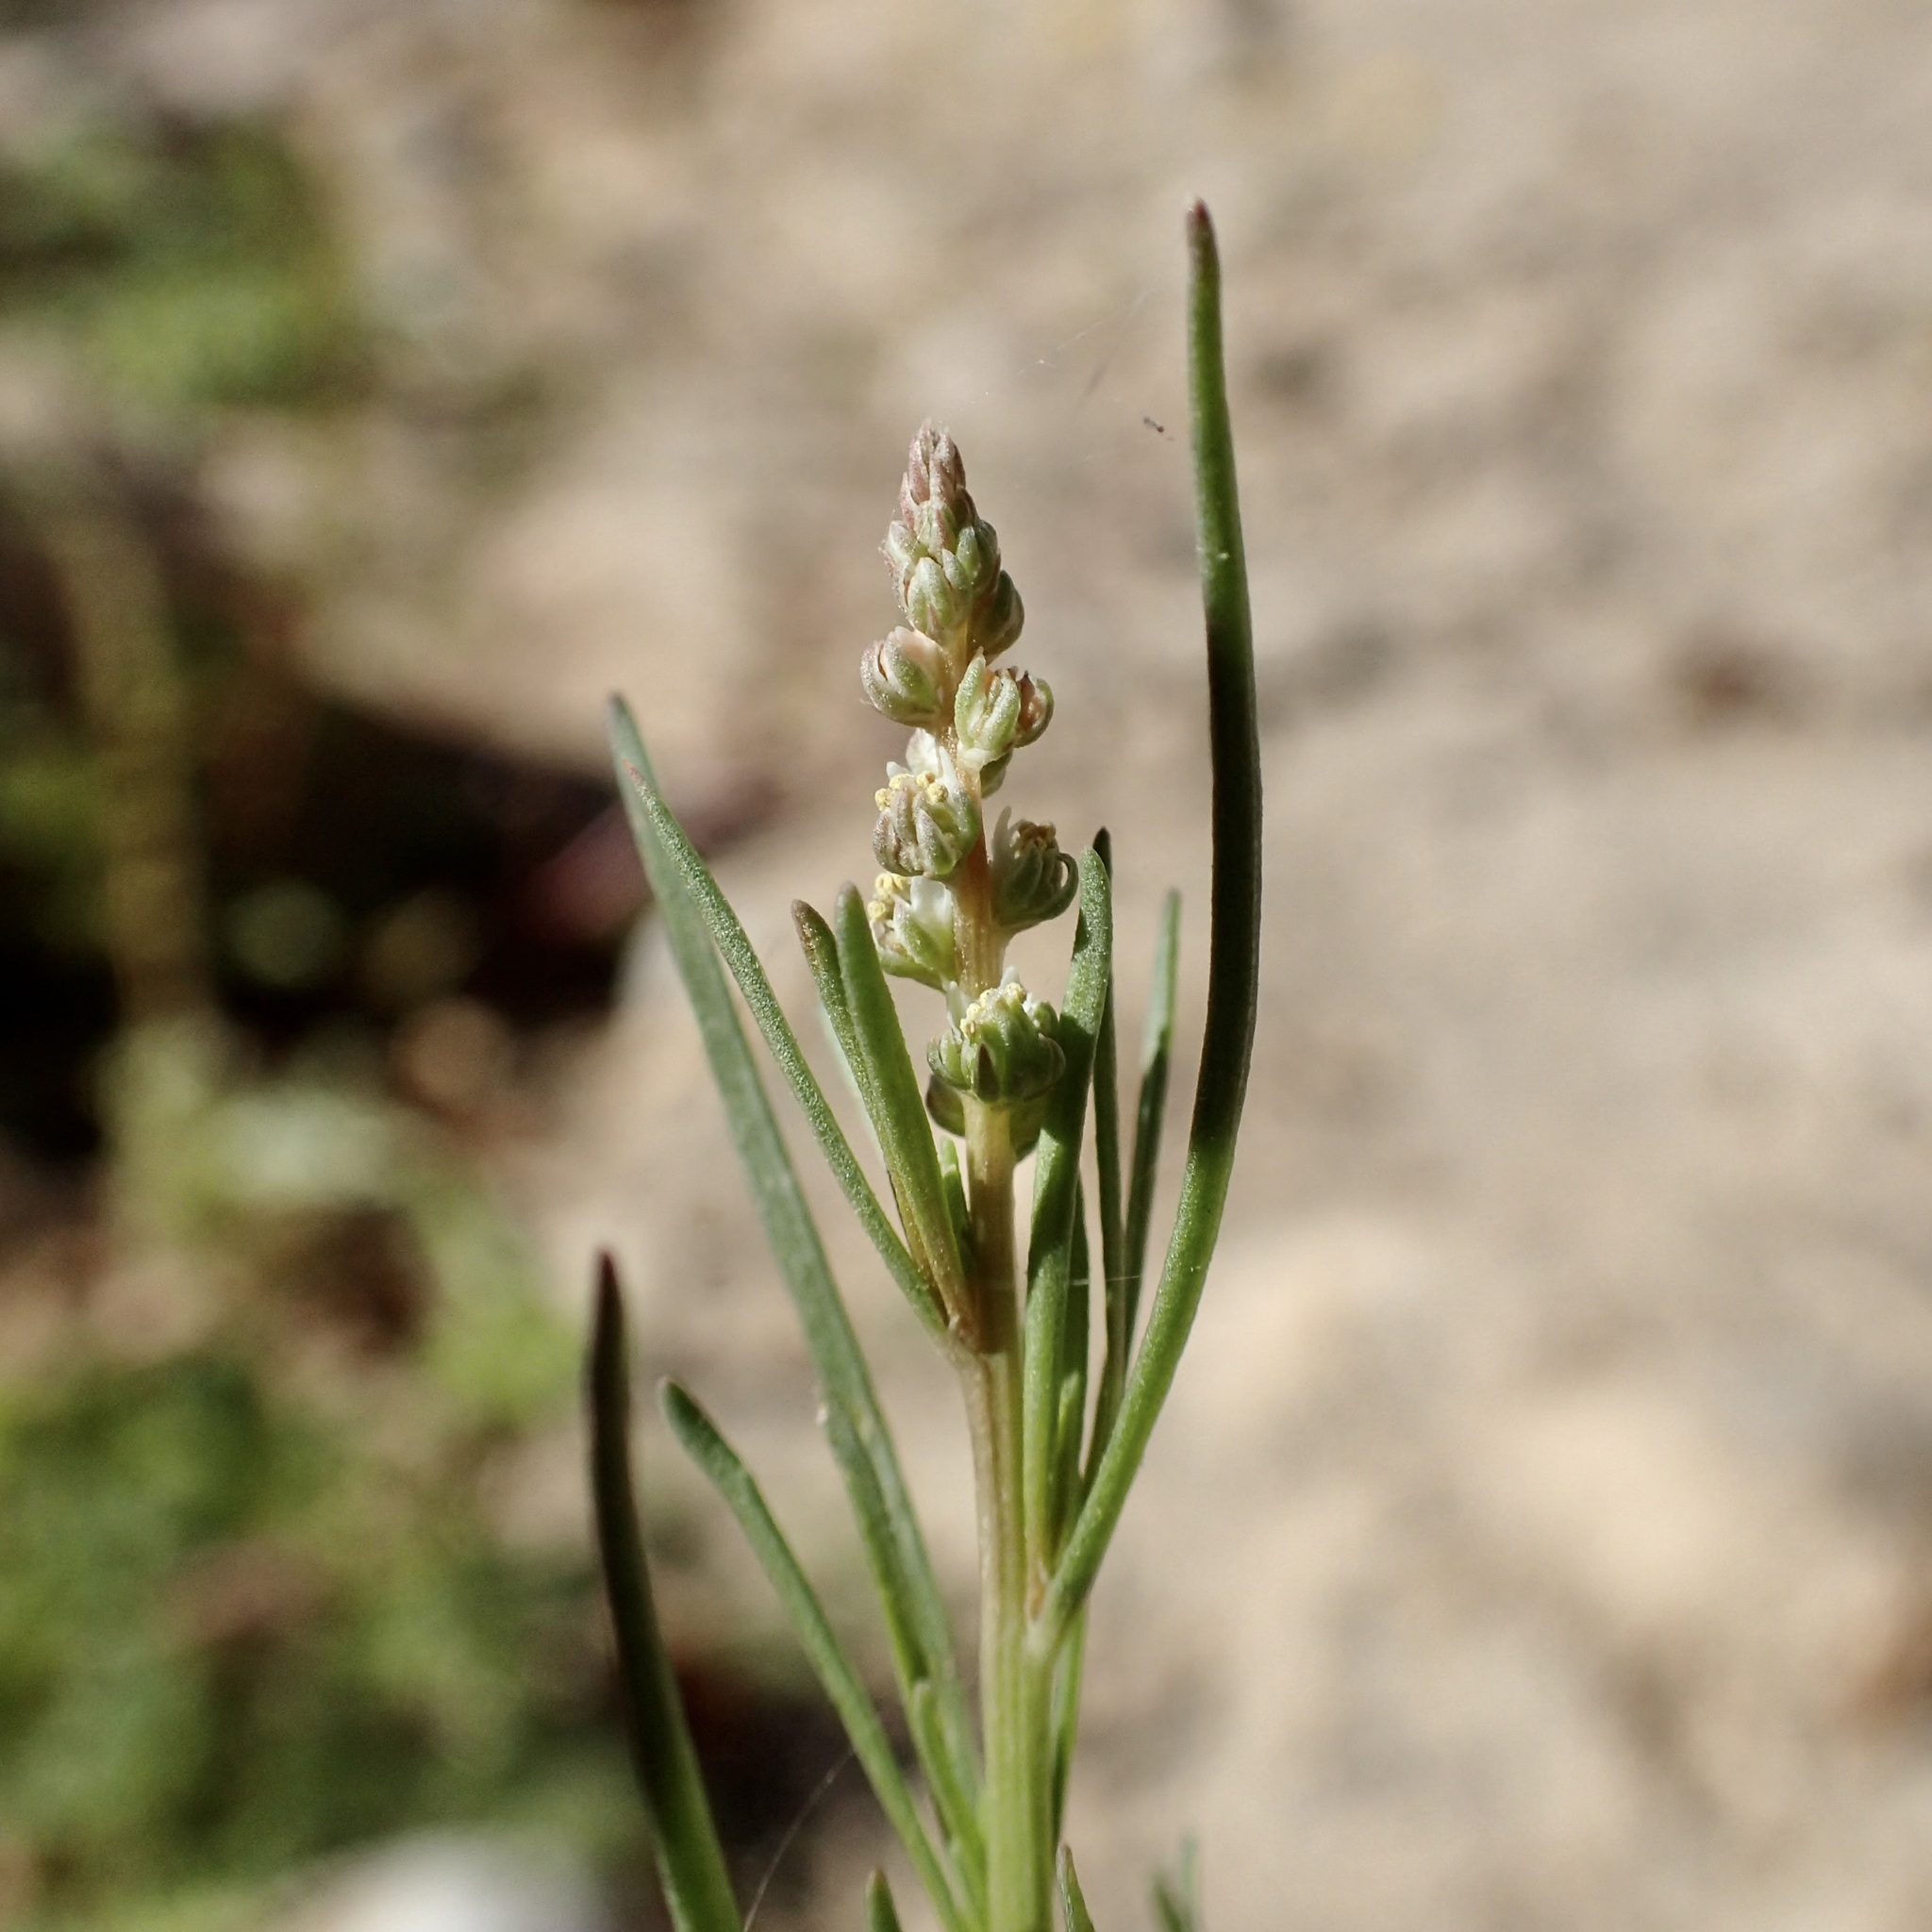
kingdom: Plantae
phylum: Tracheophyta
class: Magnoliopsida
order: Brassicales
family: Resedaceae
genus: Oligomeris
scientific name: Oligomeris linifolia
